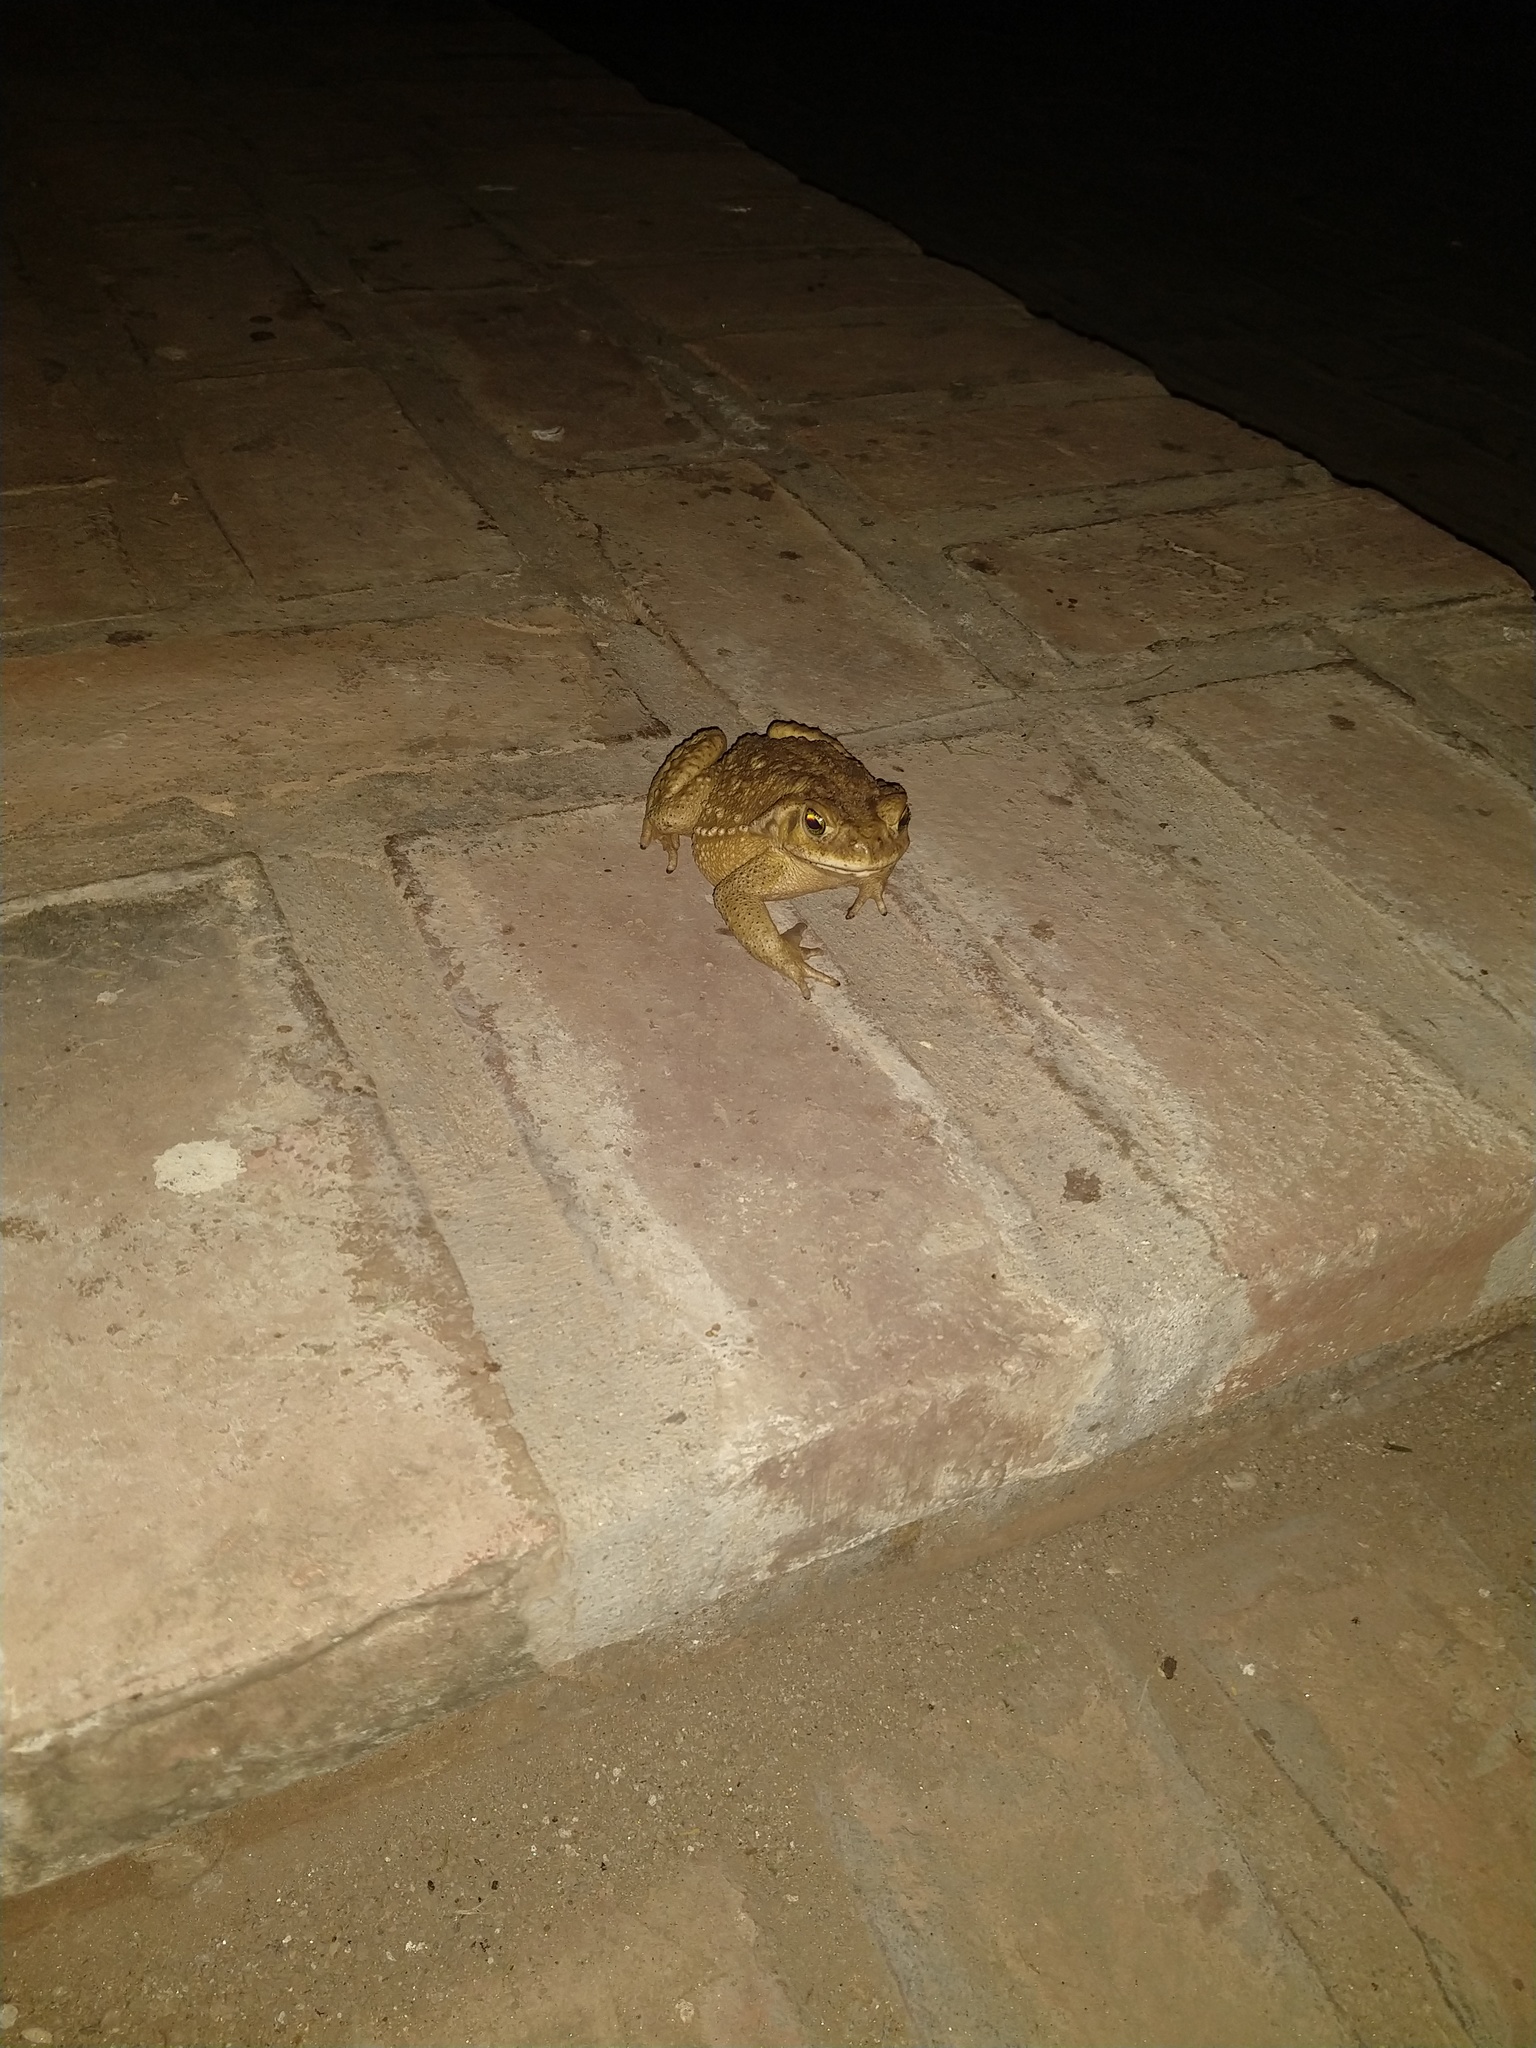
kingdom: Animalia
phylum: Chordata
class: Amphibia
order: Anura
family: Bufonidae
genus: Rhinella
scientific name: Rhinella arenarum
